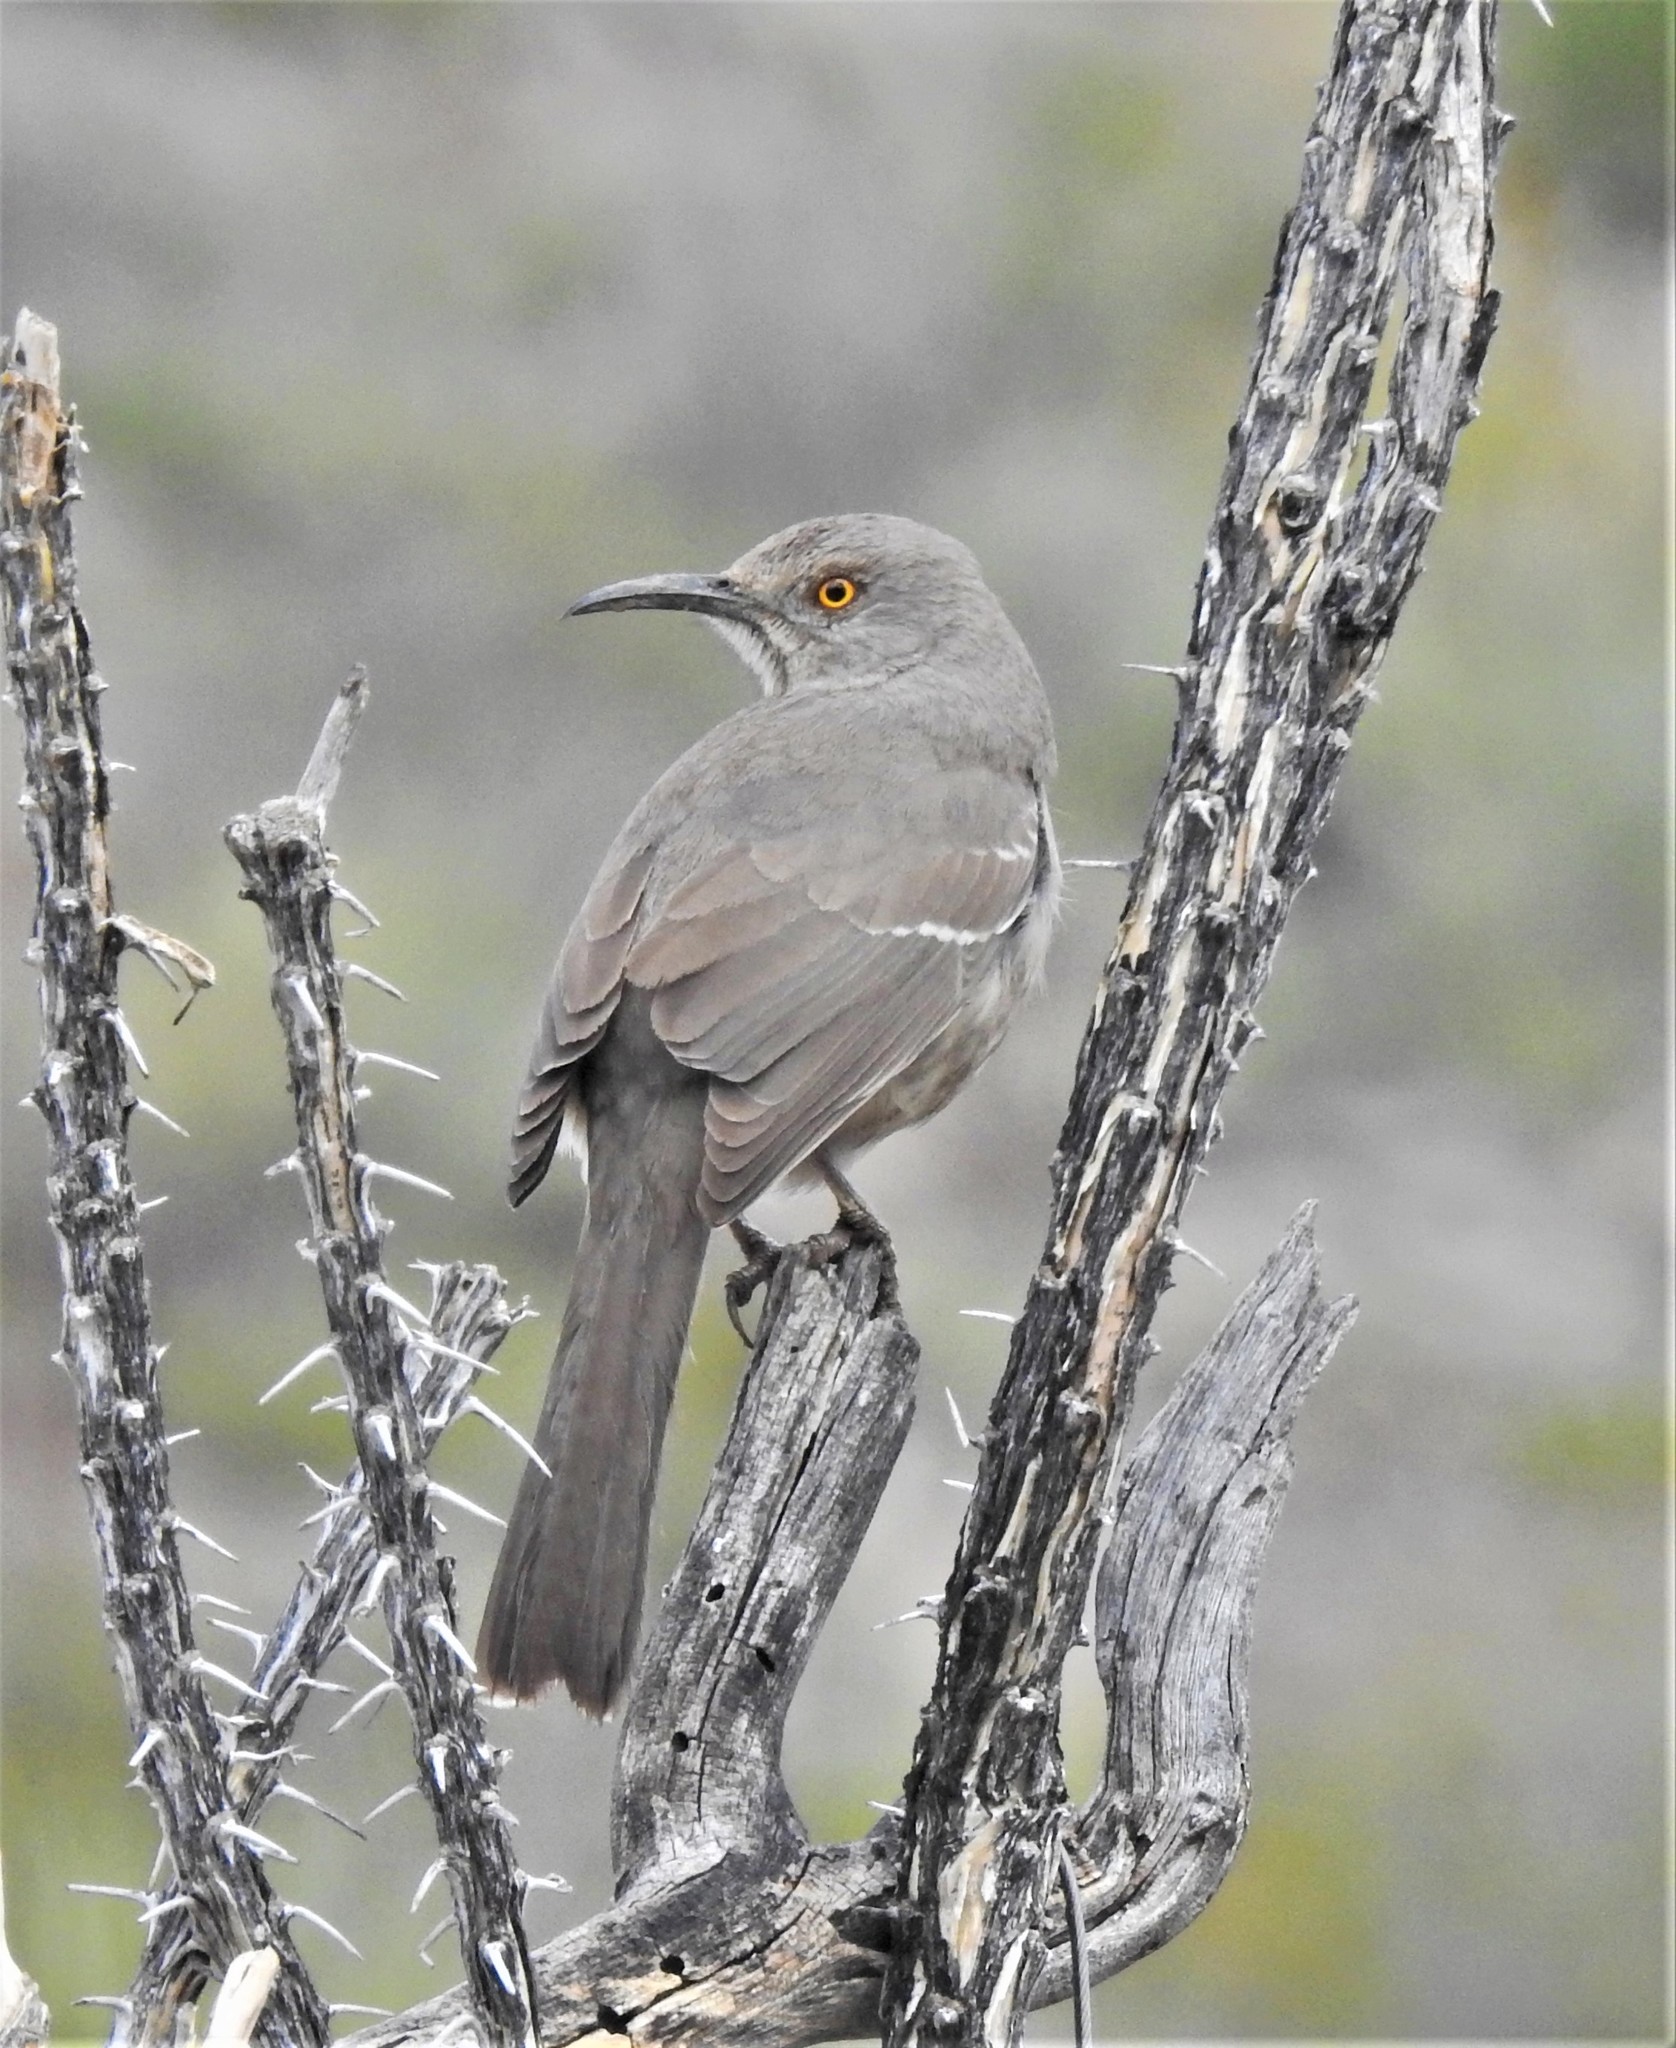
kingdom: Animalia
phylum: Chordata
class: Aves
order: Passeriformes
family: Mimidae
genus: Toxostoma
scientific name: Toxostoma curvirostre
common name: Curve-billed thrasher
